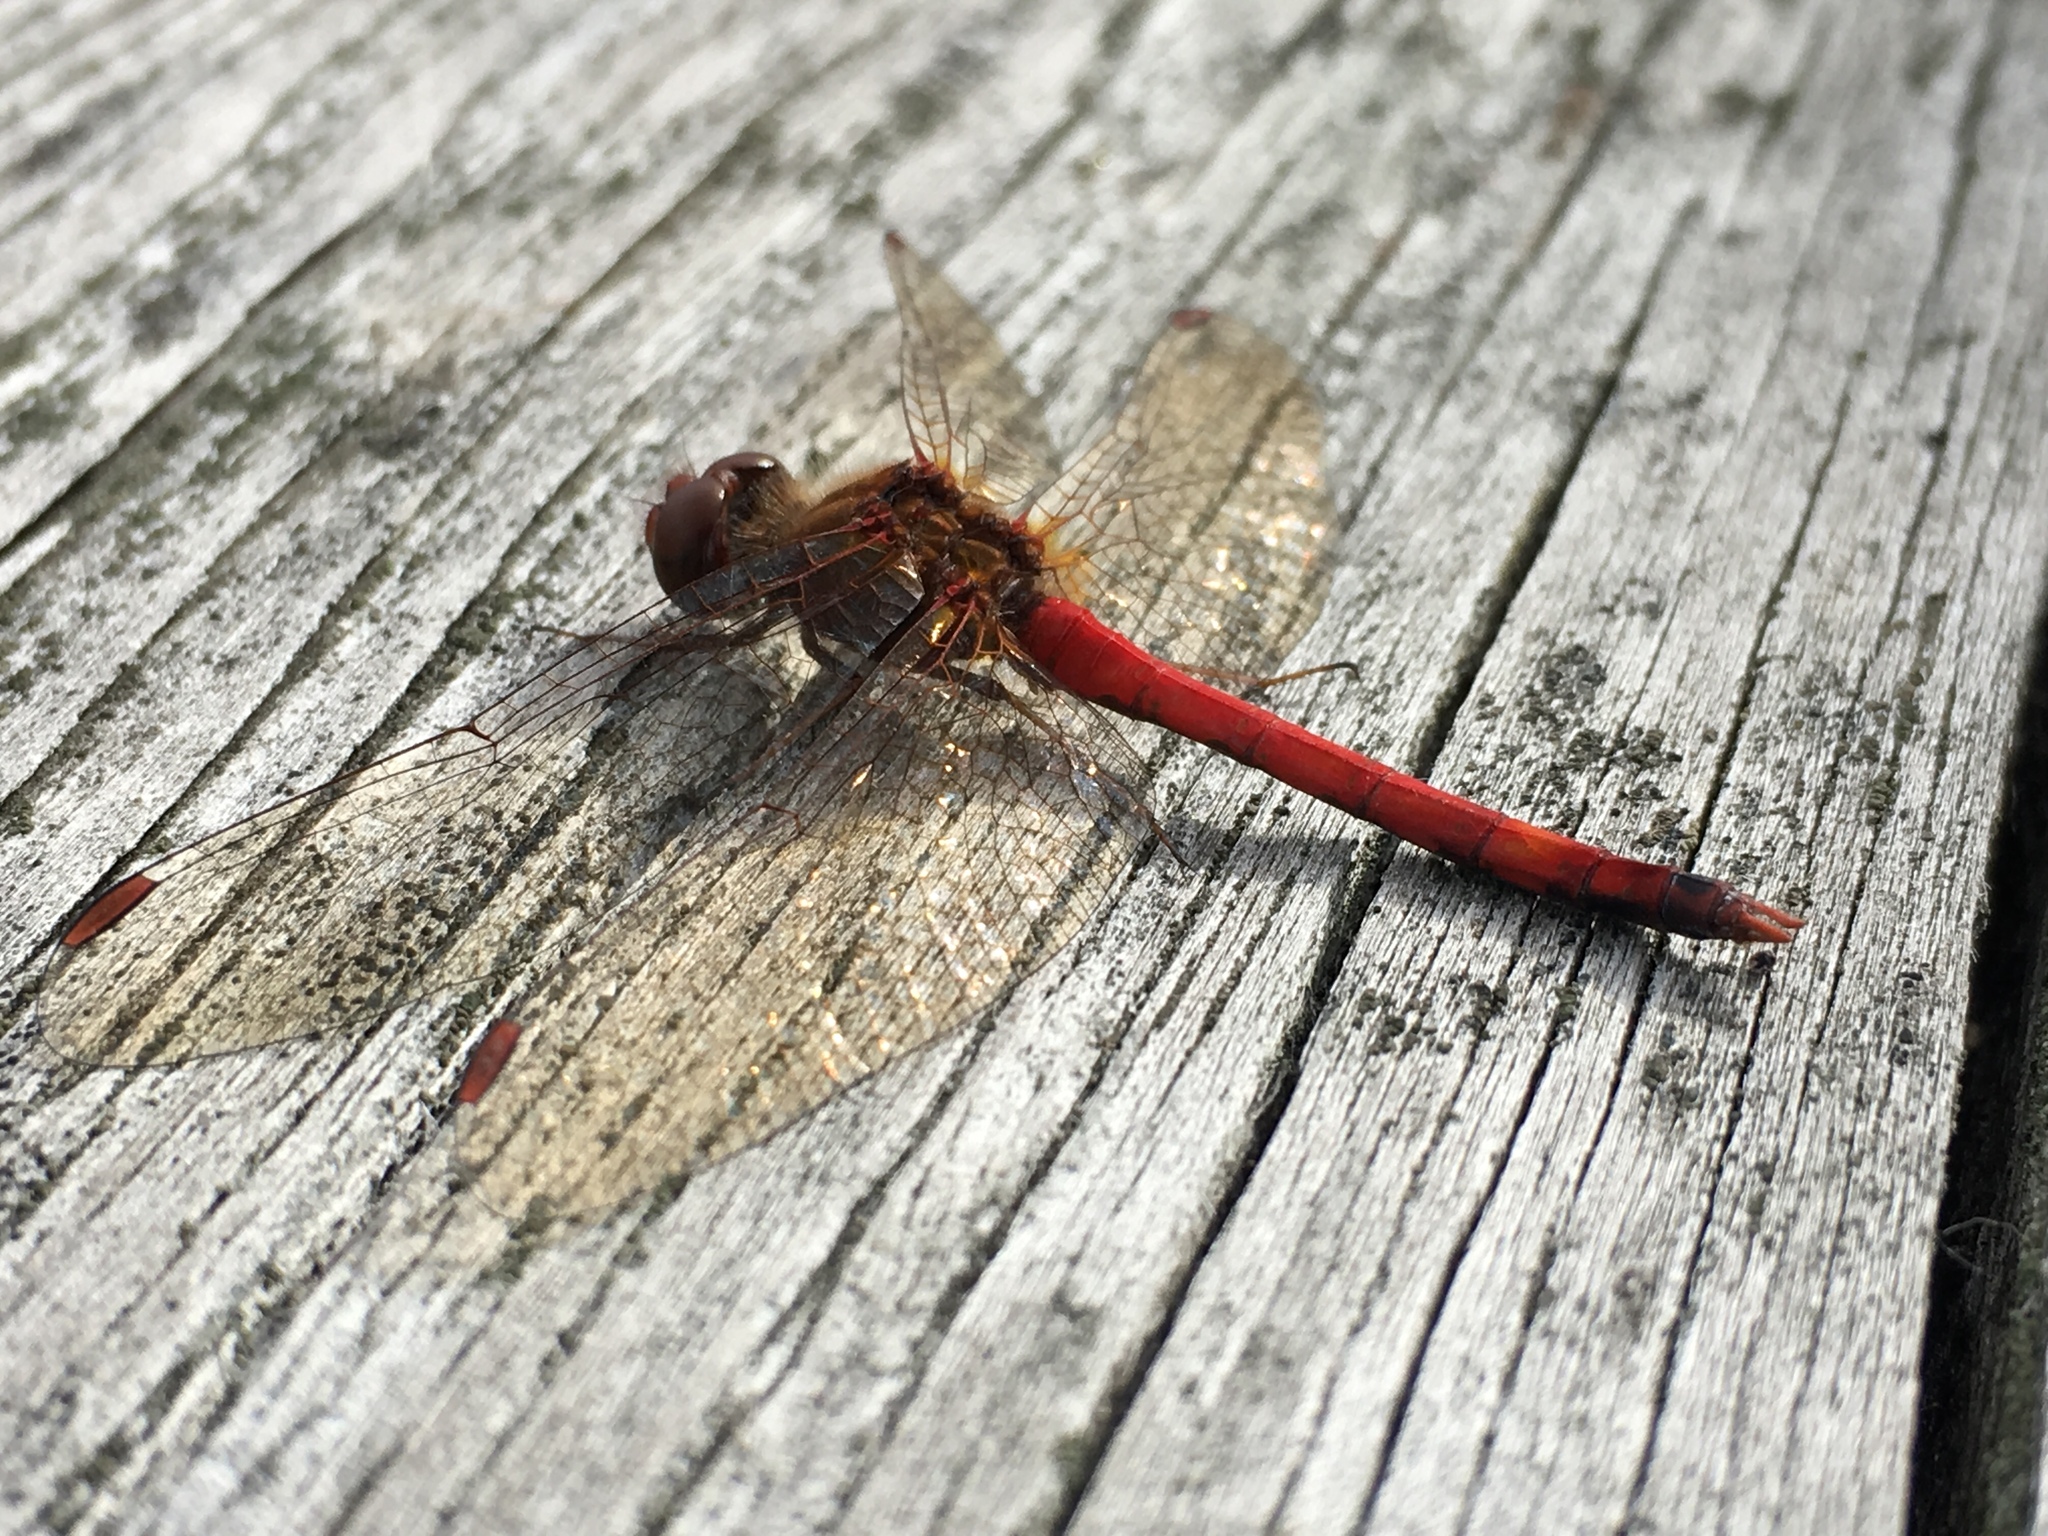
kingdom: Animalia
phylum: Arthropoda
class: Insecta
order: Odonata
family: Libellulidae
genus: Sympetrum
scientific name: Sympetrum vicinum
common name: Autumn meadowhawk
